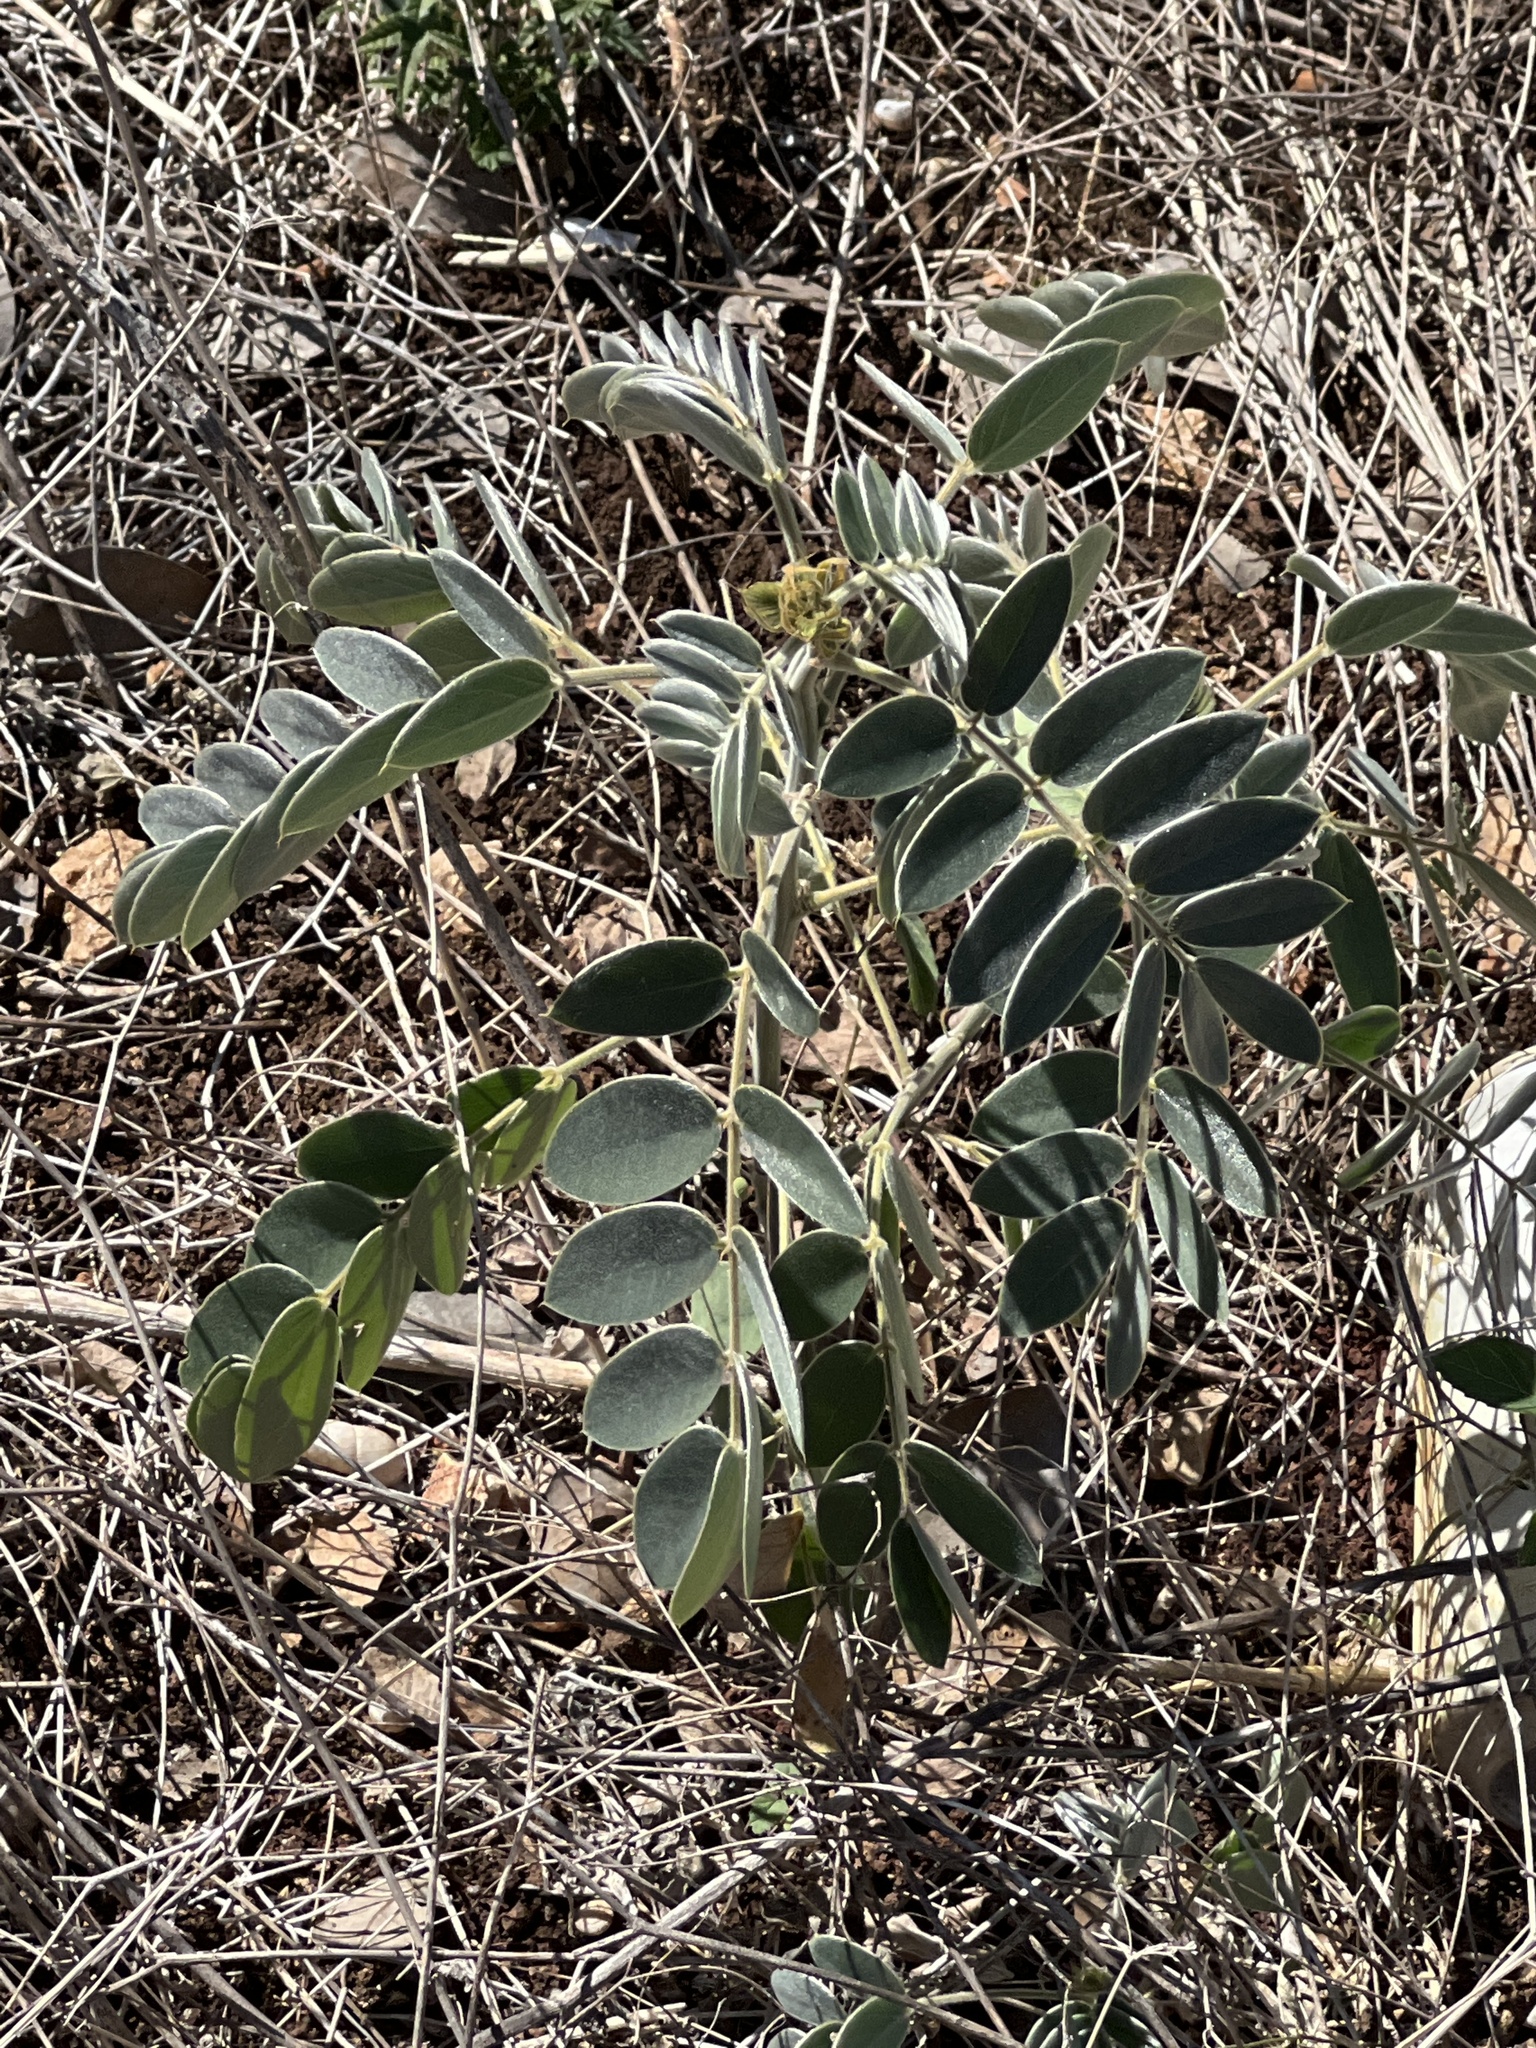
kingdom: Plantae
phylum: Tracheophyta
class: Magnoliopsida
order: Fabales
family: Fabaceae
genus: Senna
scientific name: Senna lindheimeriana
